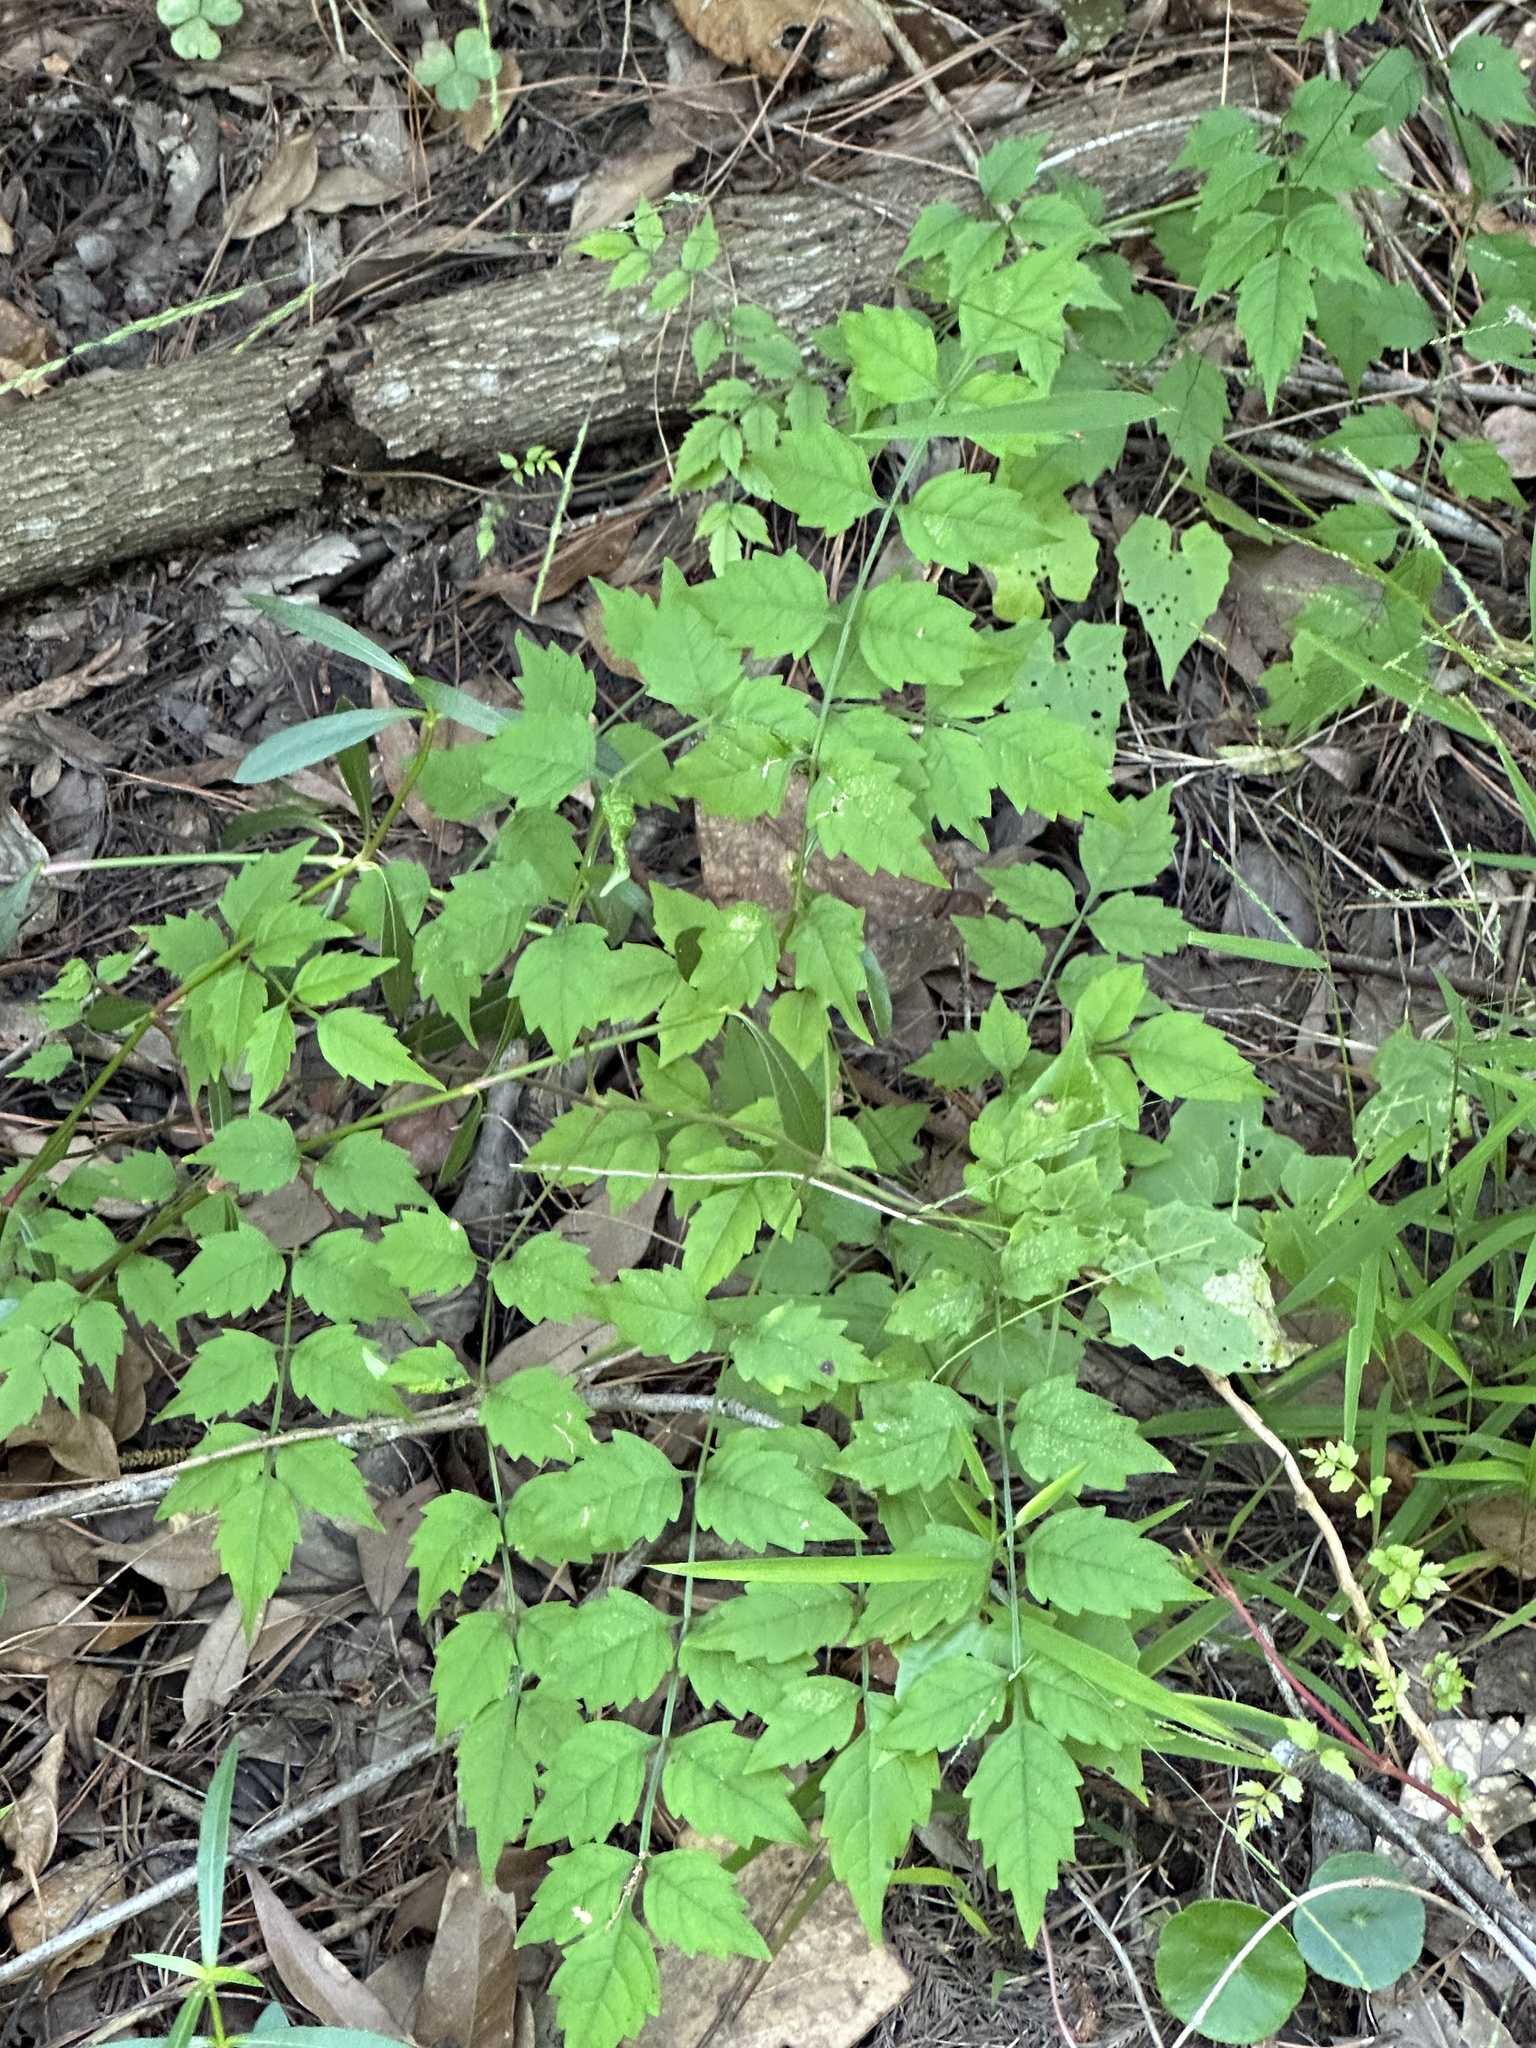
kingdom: Plantae
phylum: Tracheophyta
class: Magnoliopsida
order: Lamiales
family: Bignoniaceae
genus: Campsis
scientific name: Campsis radicans
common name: Trumpet-creeper
